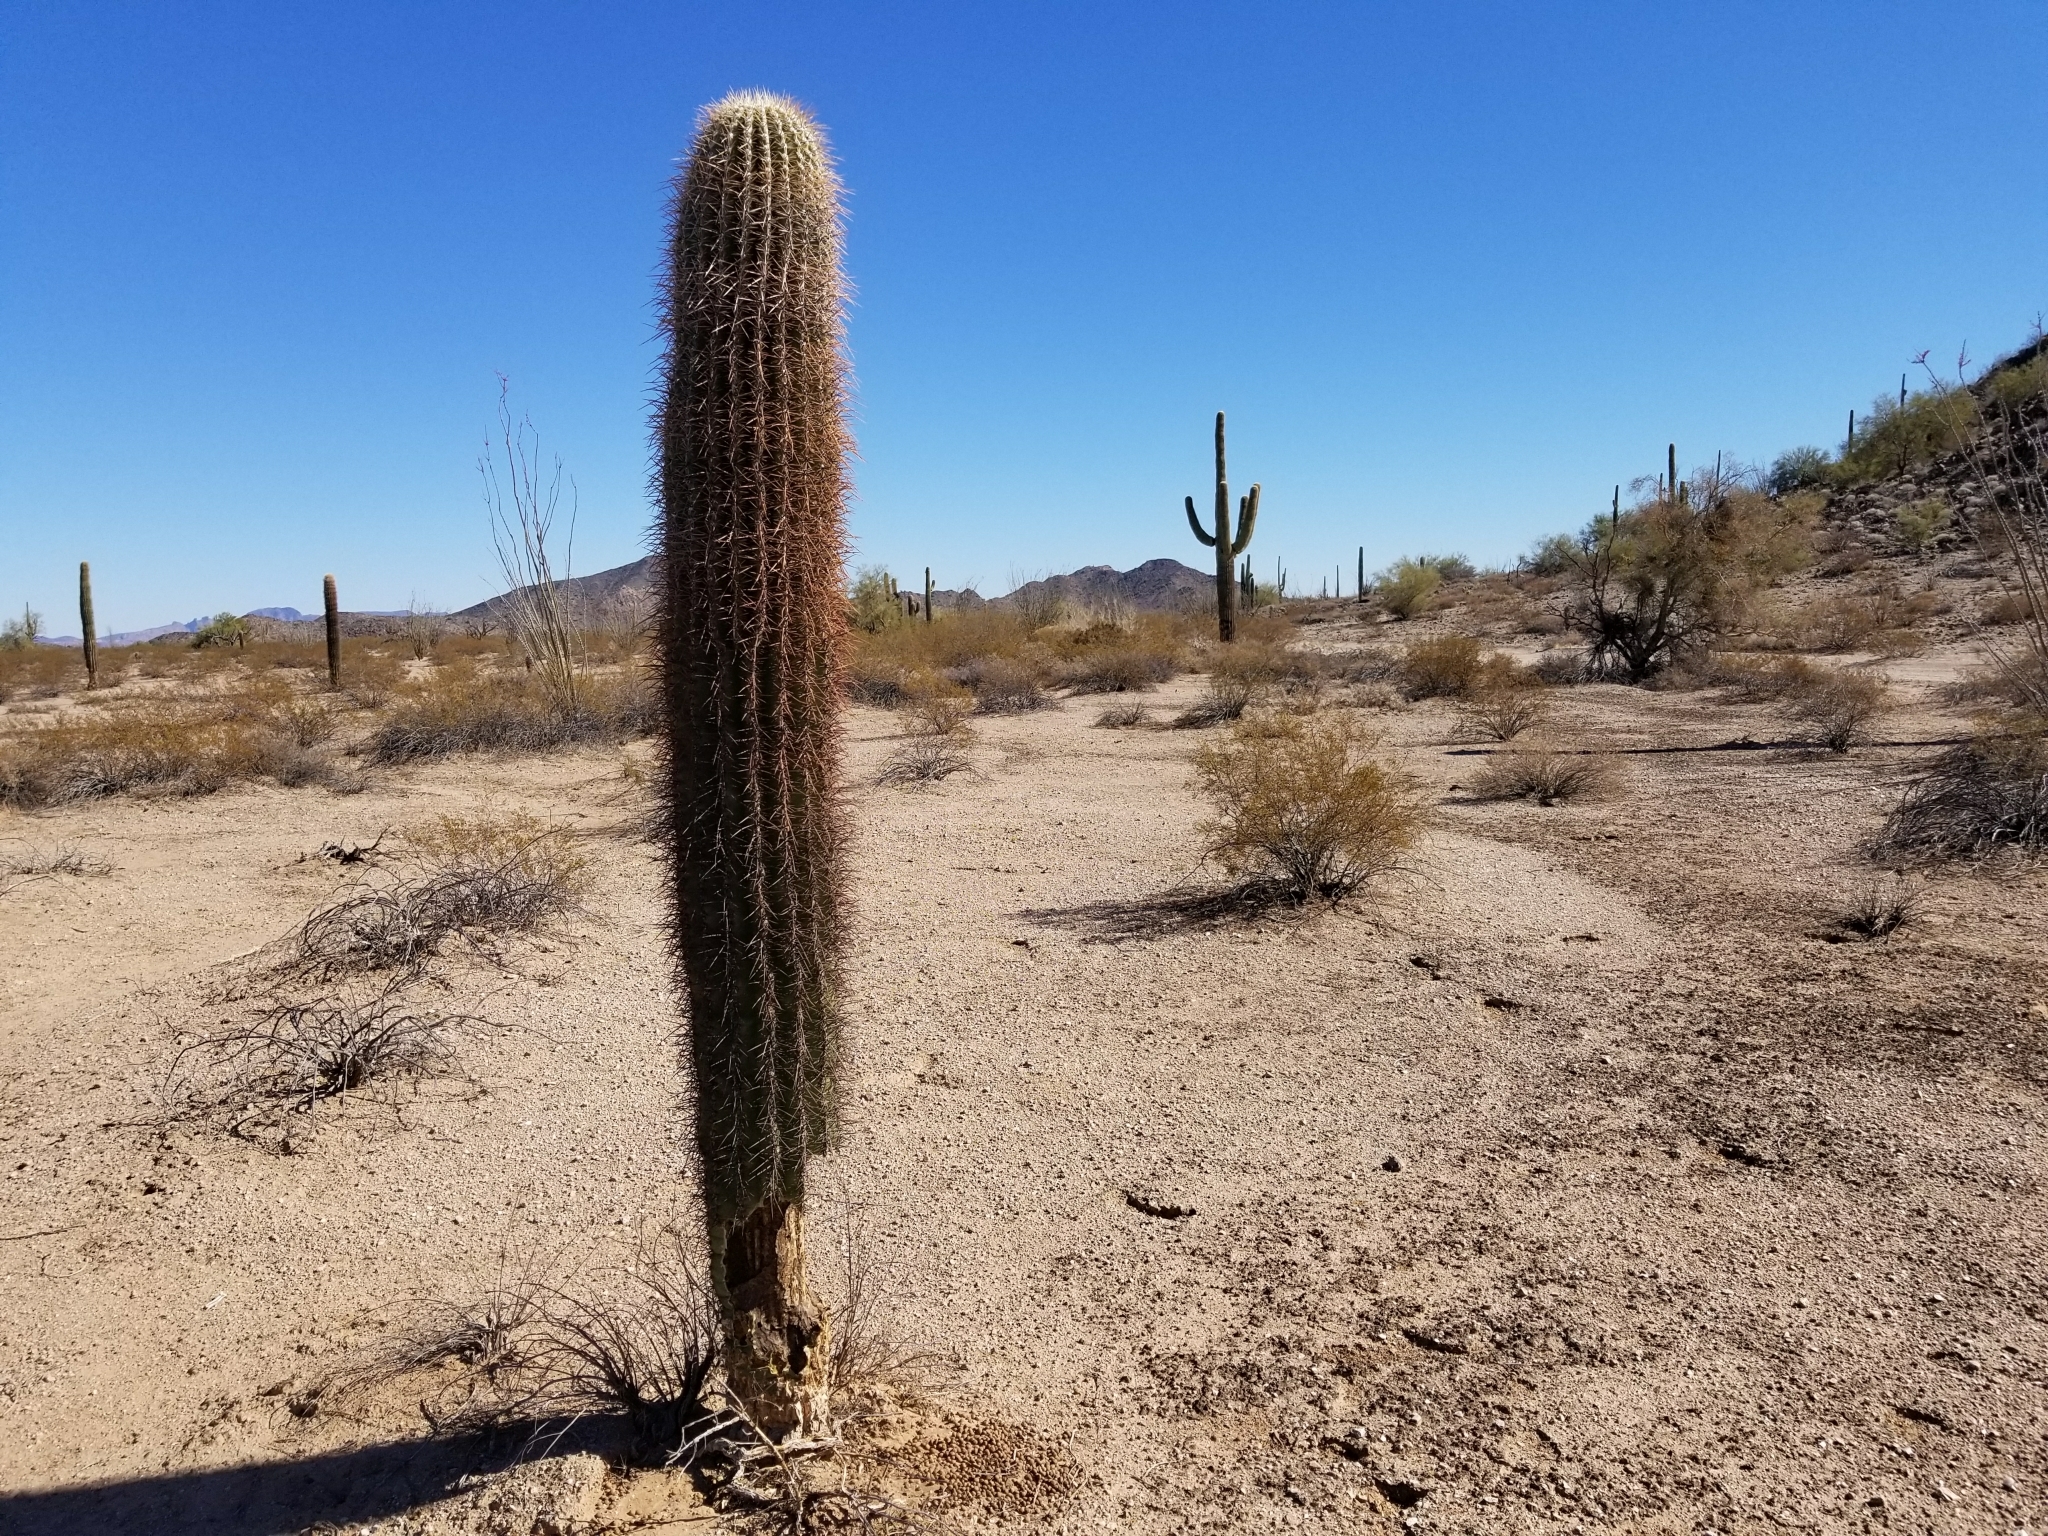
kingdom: Plantae
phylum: Tracheophyta
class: Magnoliopsida
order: Caryophyllales
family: Cactaceae
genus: Carnegiea
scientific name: Carnegiea gigantea
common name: Saguaro
